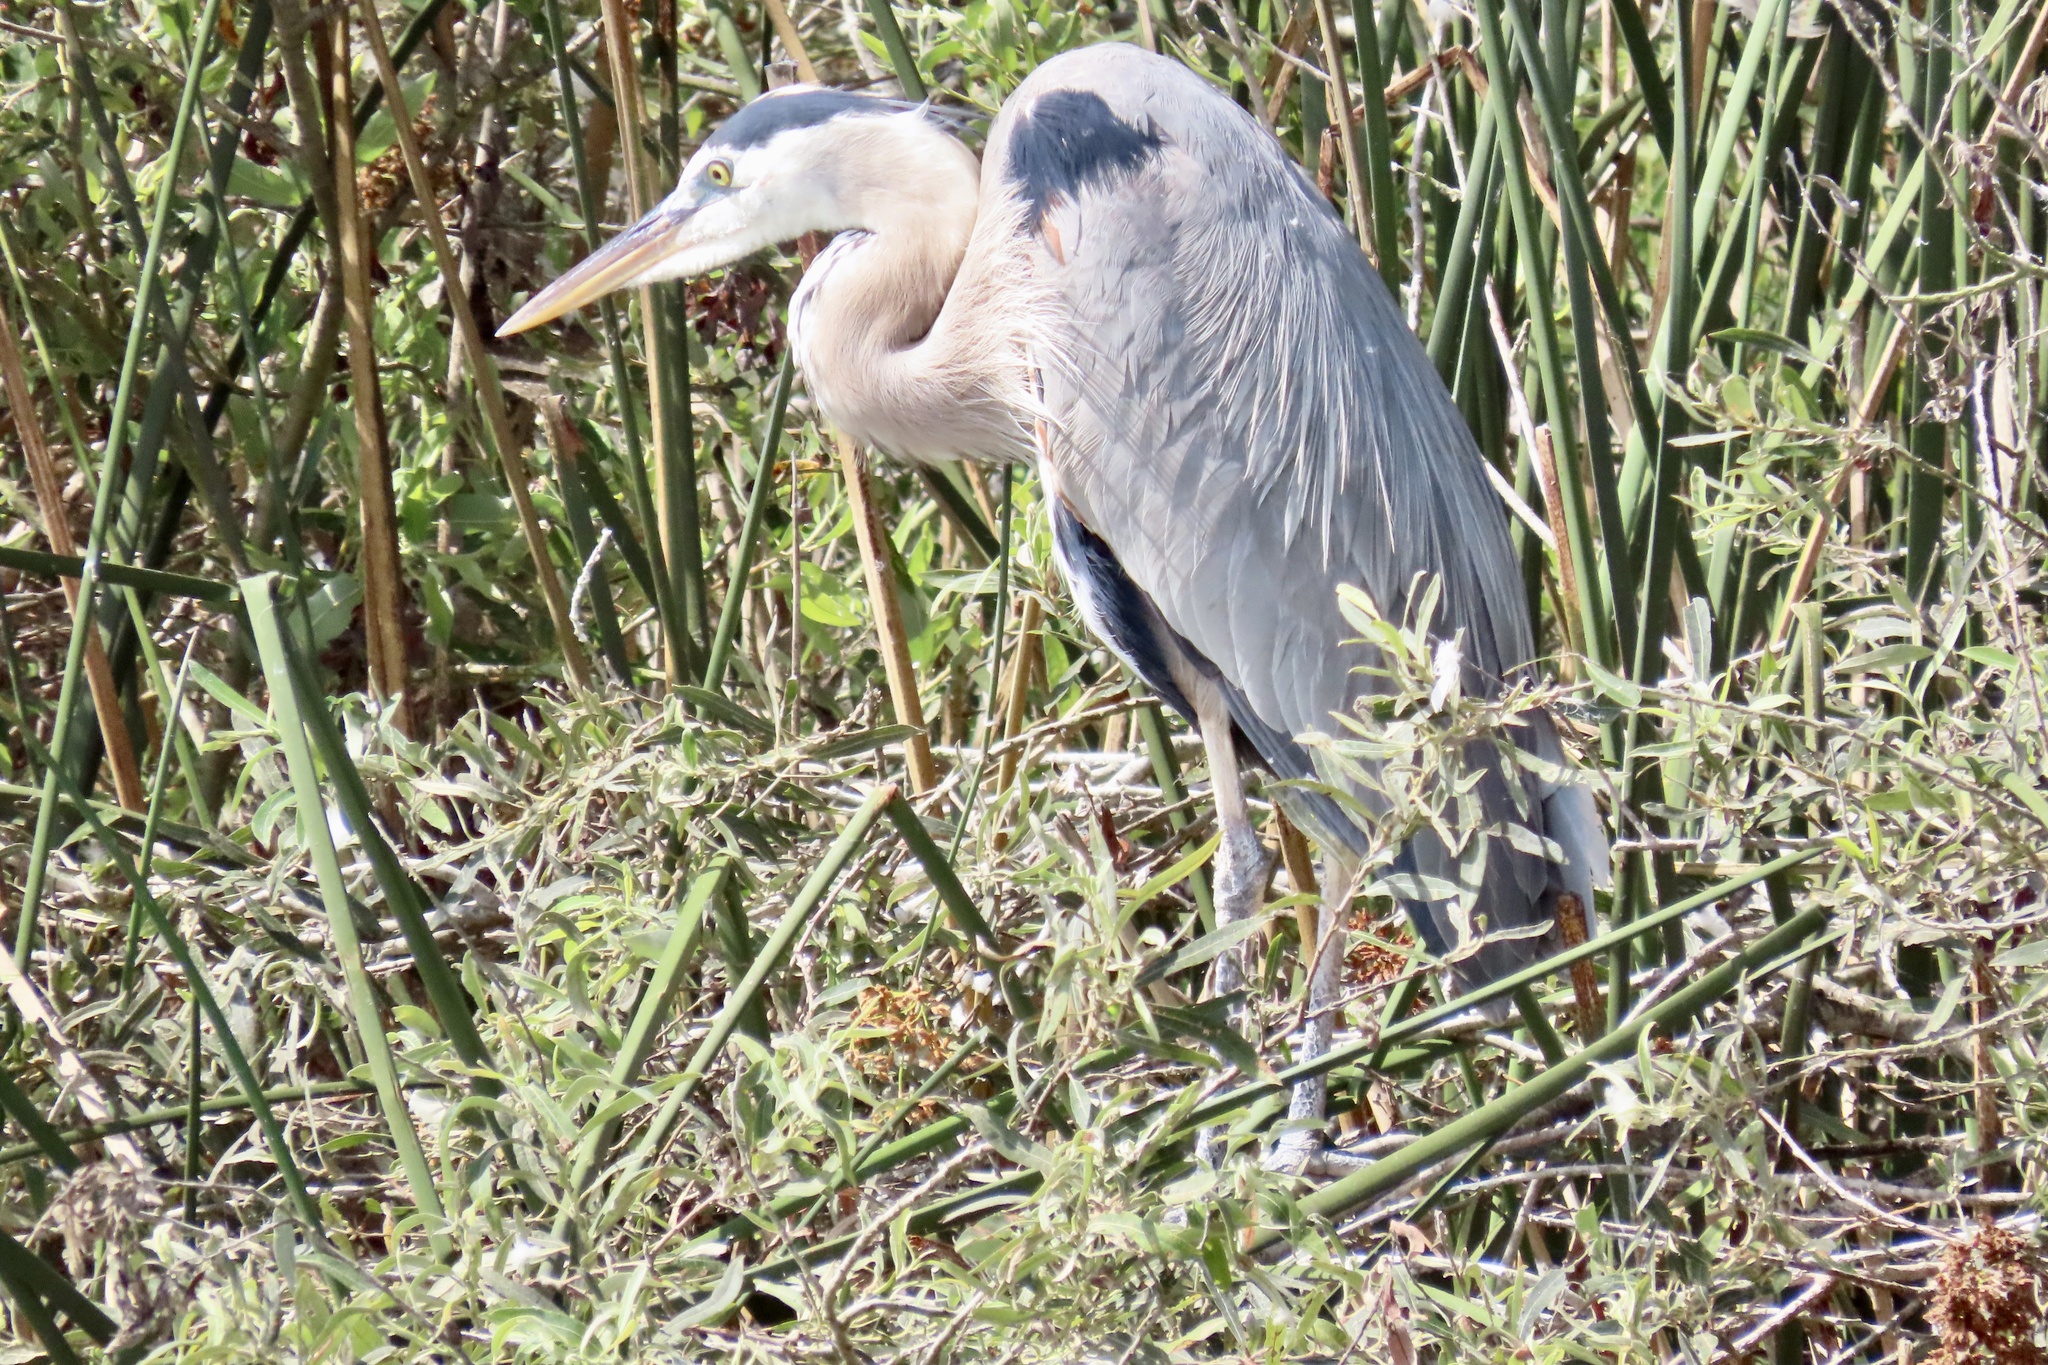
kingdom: Animalia
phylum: Chordata
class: Aves
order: Pelecaniformes
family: Ardeidae
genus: Ardea
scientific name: Ardea herodias
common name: Great blue heron
